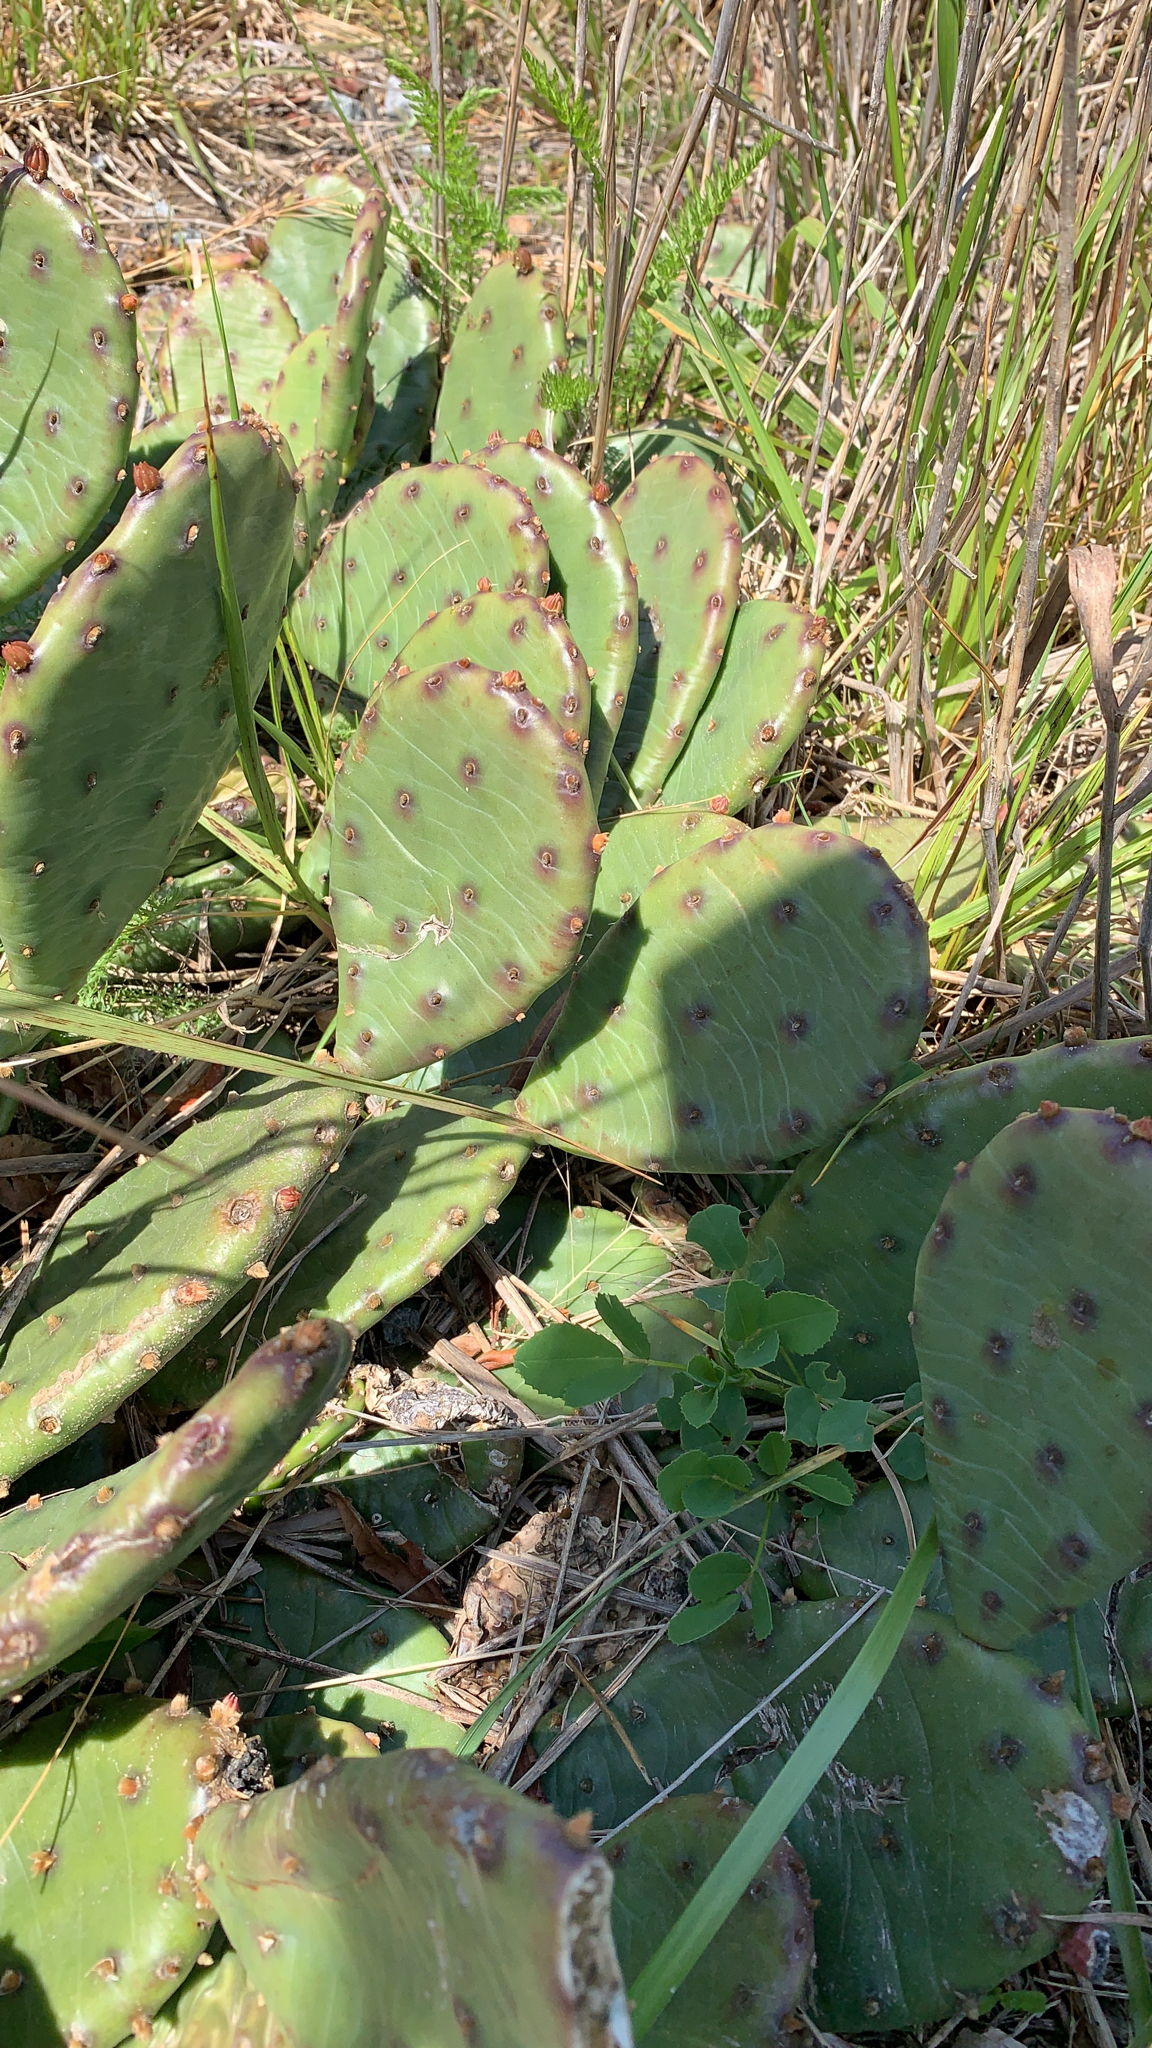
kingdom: Plantae
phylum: Tracheophyta
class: Magnoliopsida
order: Caryophyllales
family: Cactaceae
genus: Opuntia
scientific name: Opuntia humifusa
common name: Eastern prickly-pear
